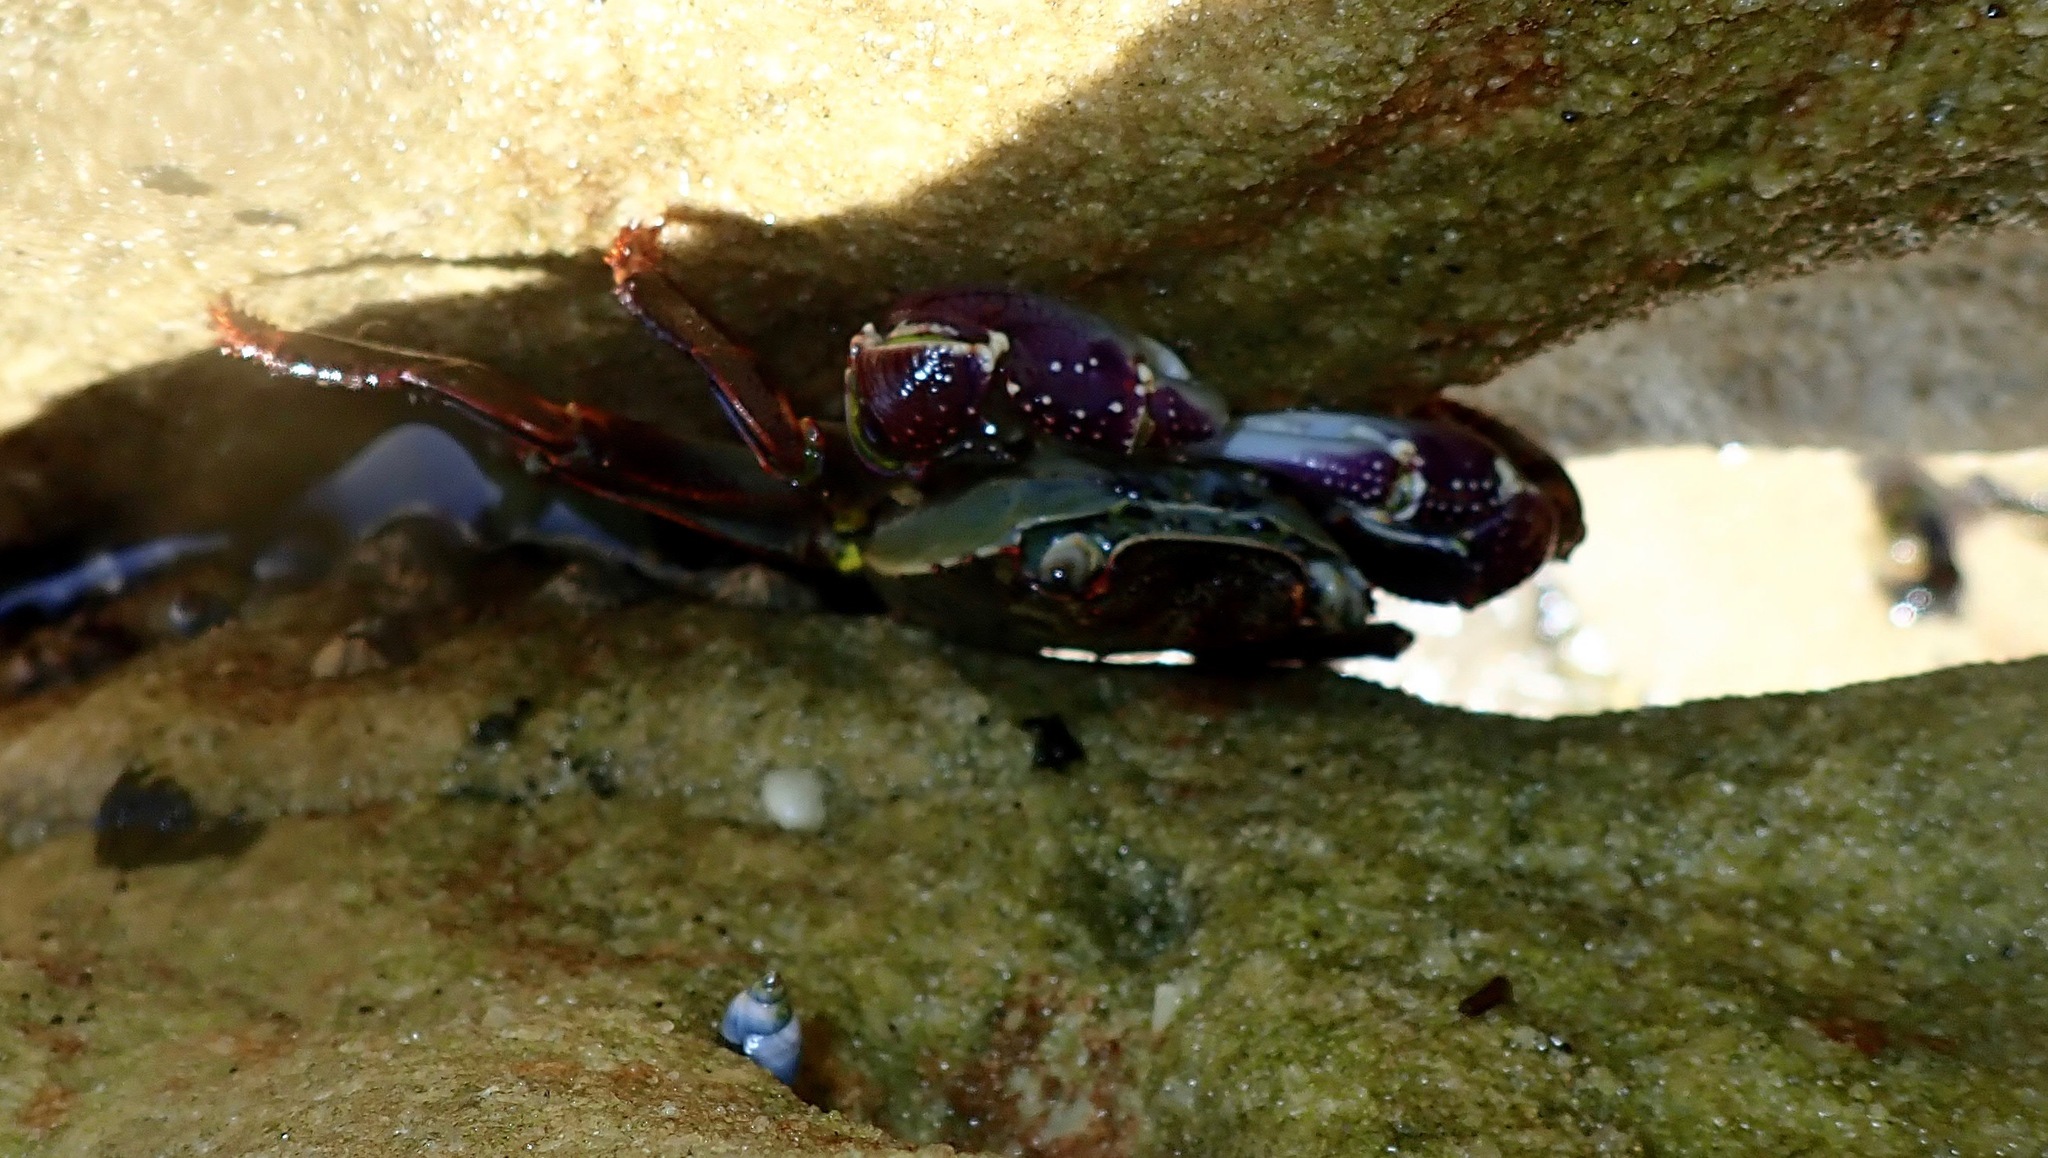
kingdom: Animalia
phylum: Arthropoda
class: Malacostraca
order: Decapoda
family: Grapsidae
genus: Leptograpsus
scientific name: Leptograpsus variegatus
